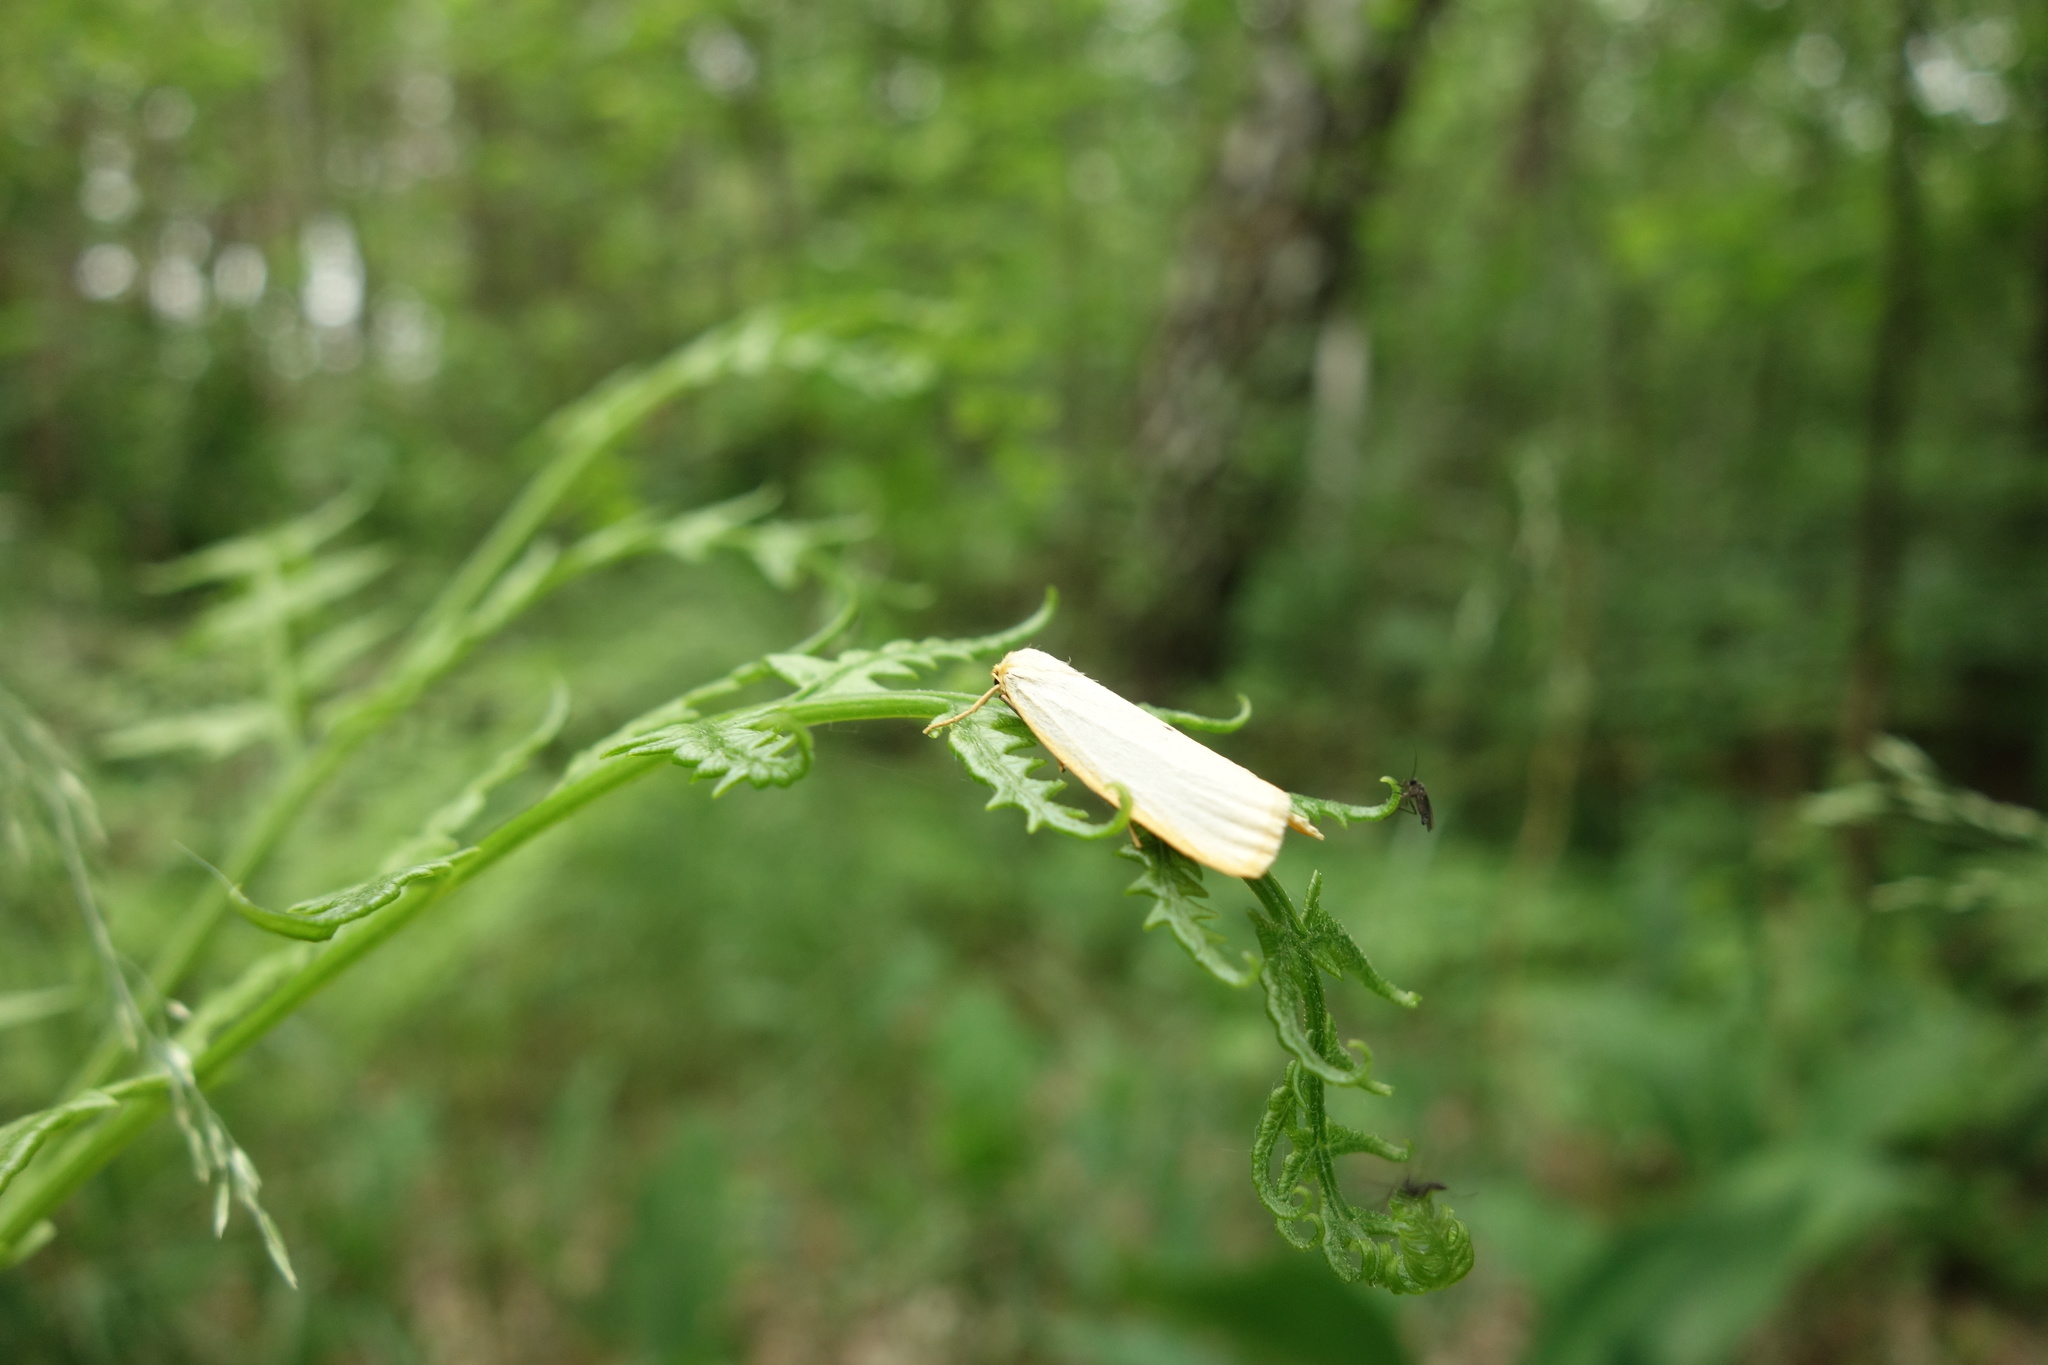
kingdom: Animalia
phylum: Arthropoda
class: Insecta
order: Lepidoptera
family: Erebidae
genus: Cybosia
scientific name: Cybosia mesomella
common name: Four-dotted footman
